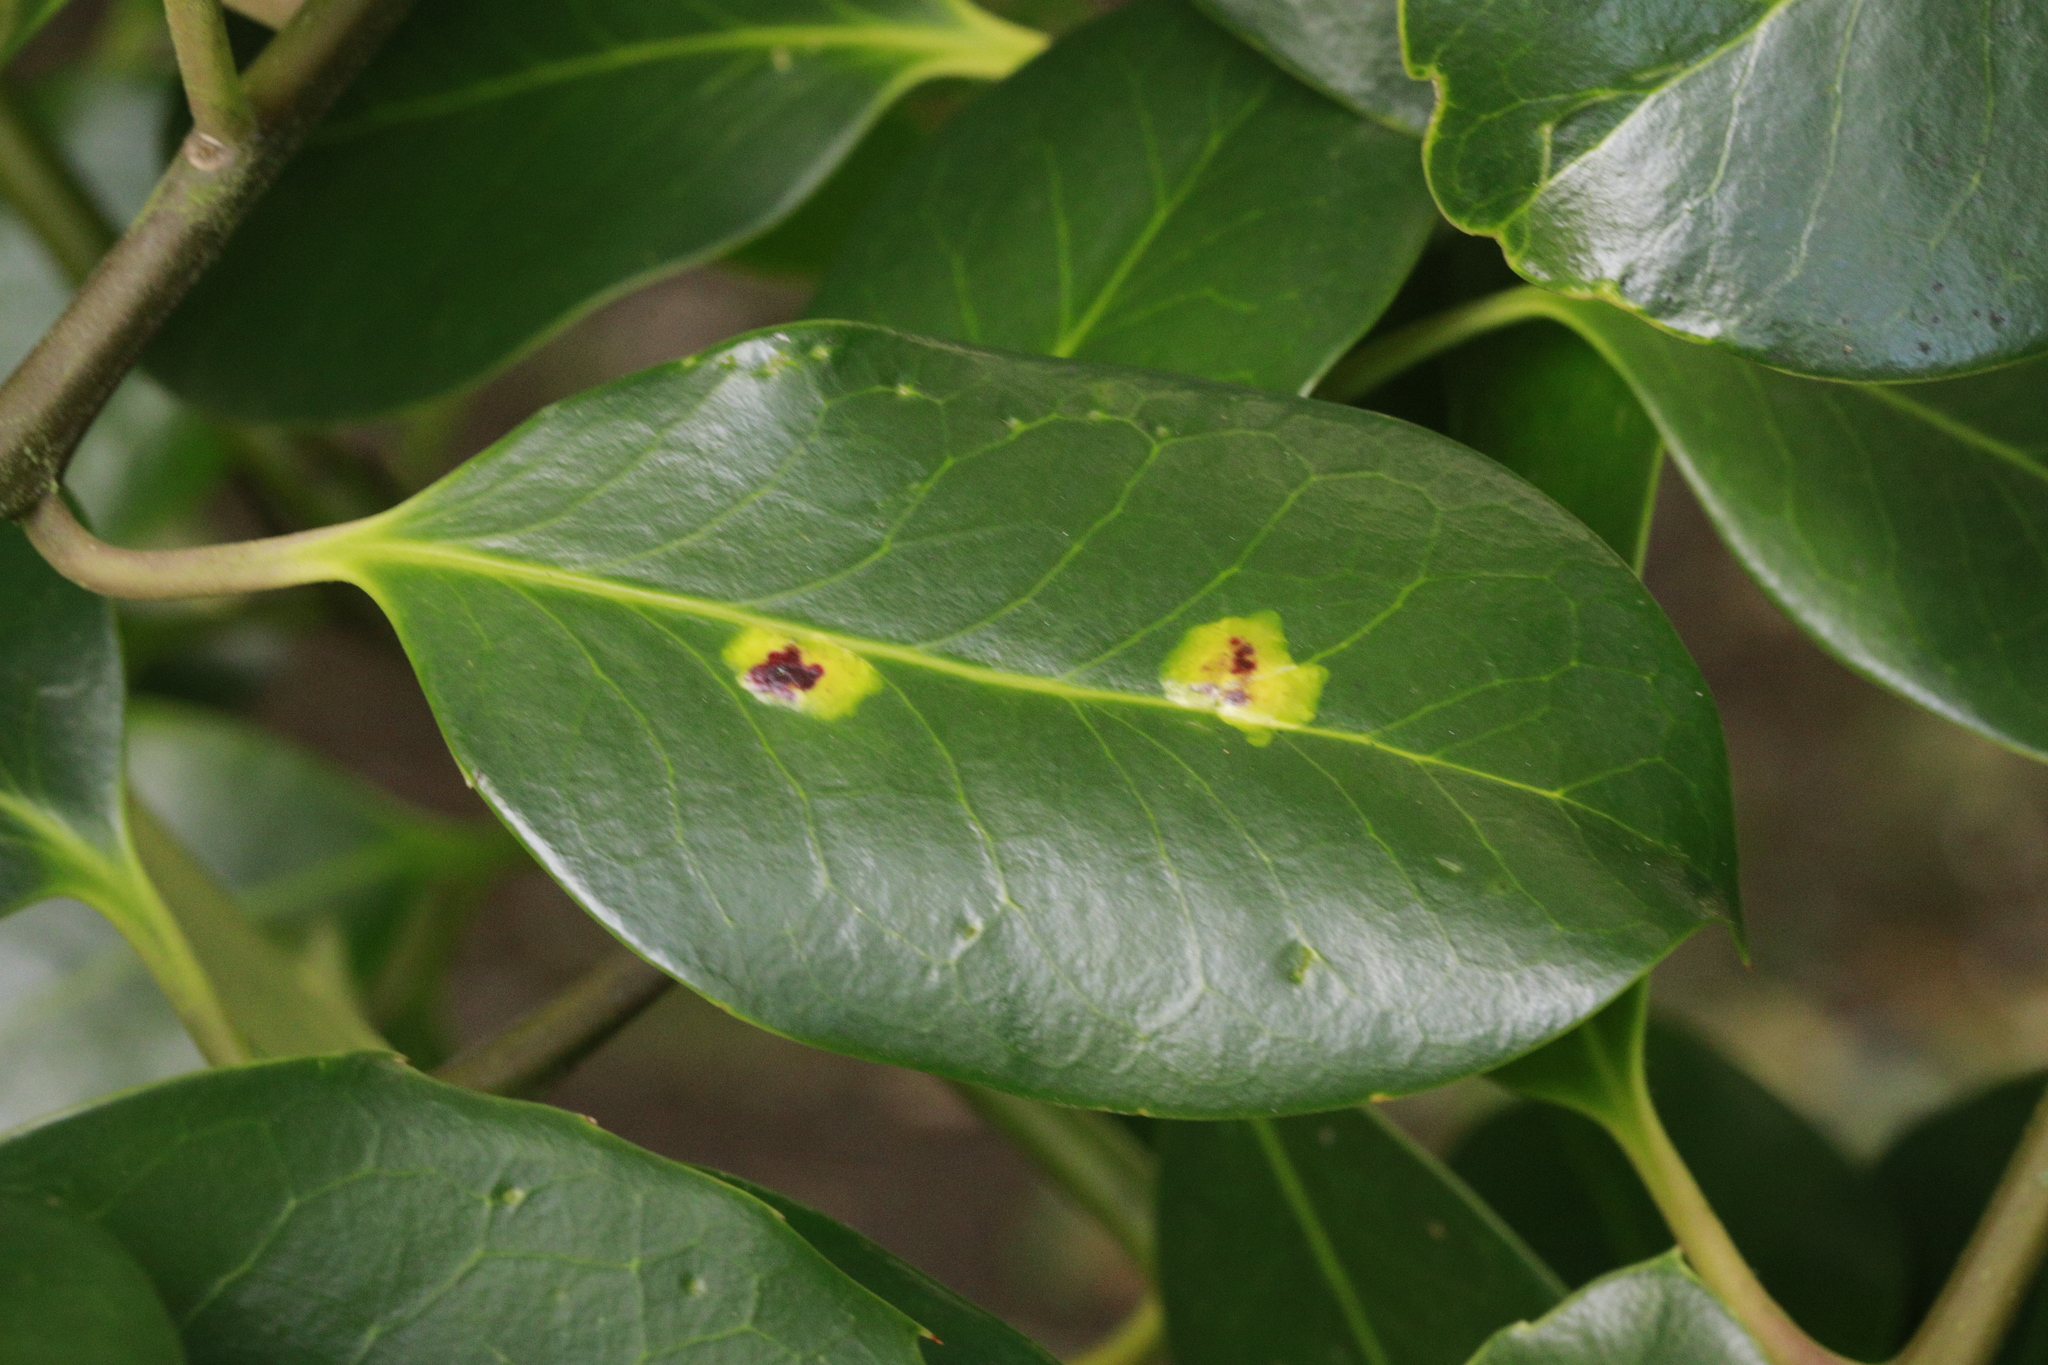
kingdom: Animalia
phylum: Arthropoda
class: Insecta
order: Diptera
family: Agromyzidae
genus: Phytomyza
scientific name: Phytomyza ilicis
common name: Holly leafminer
